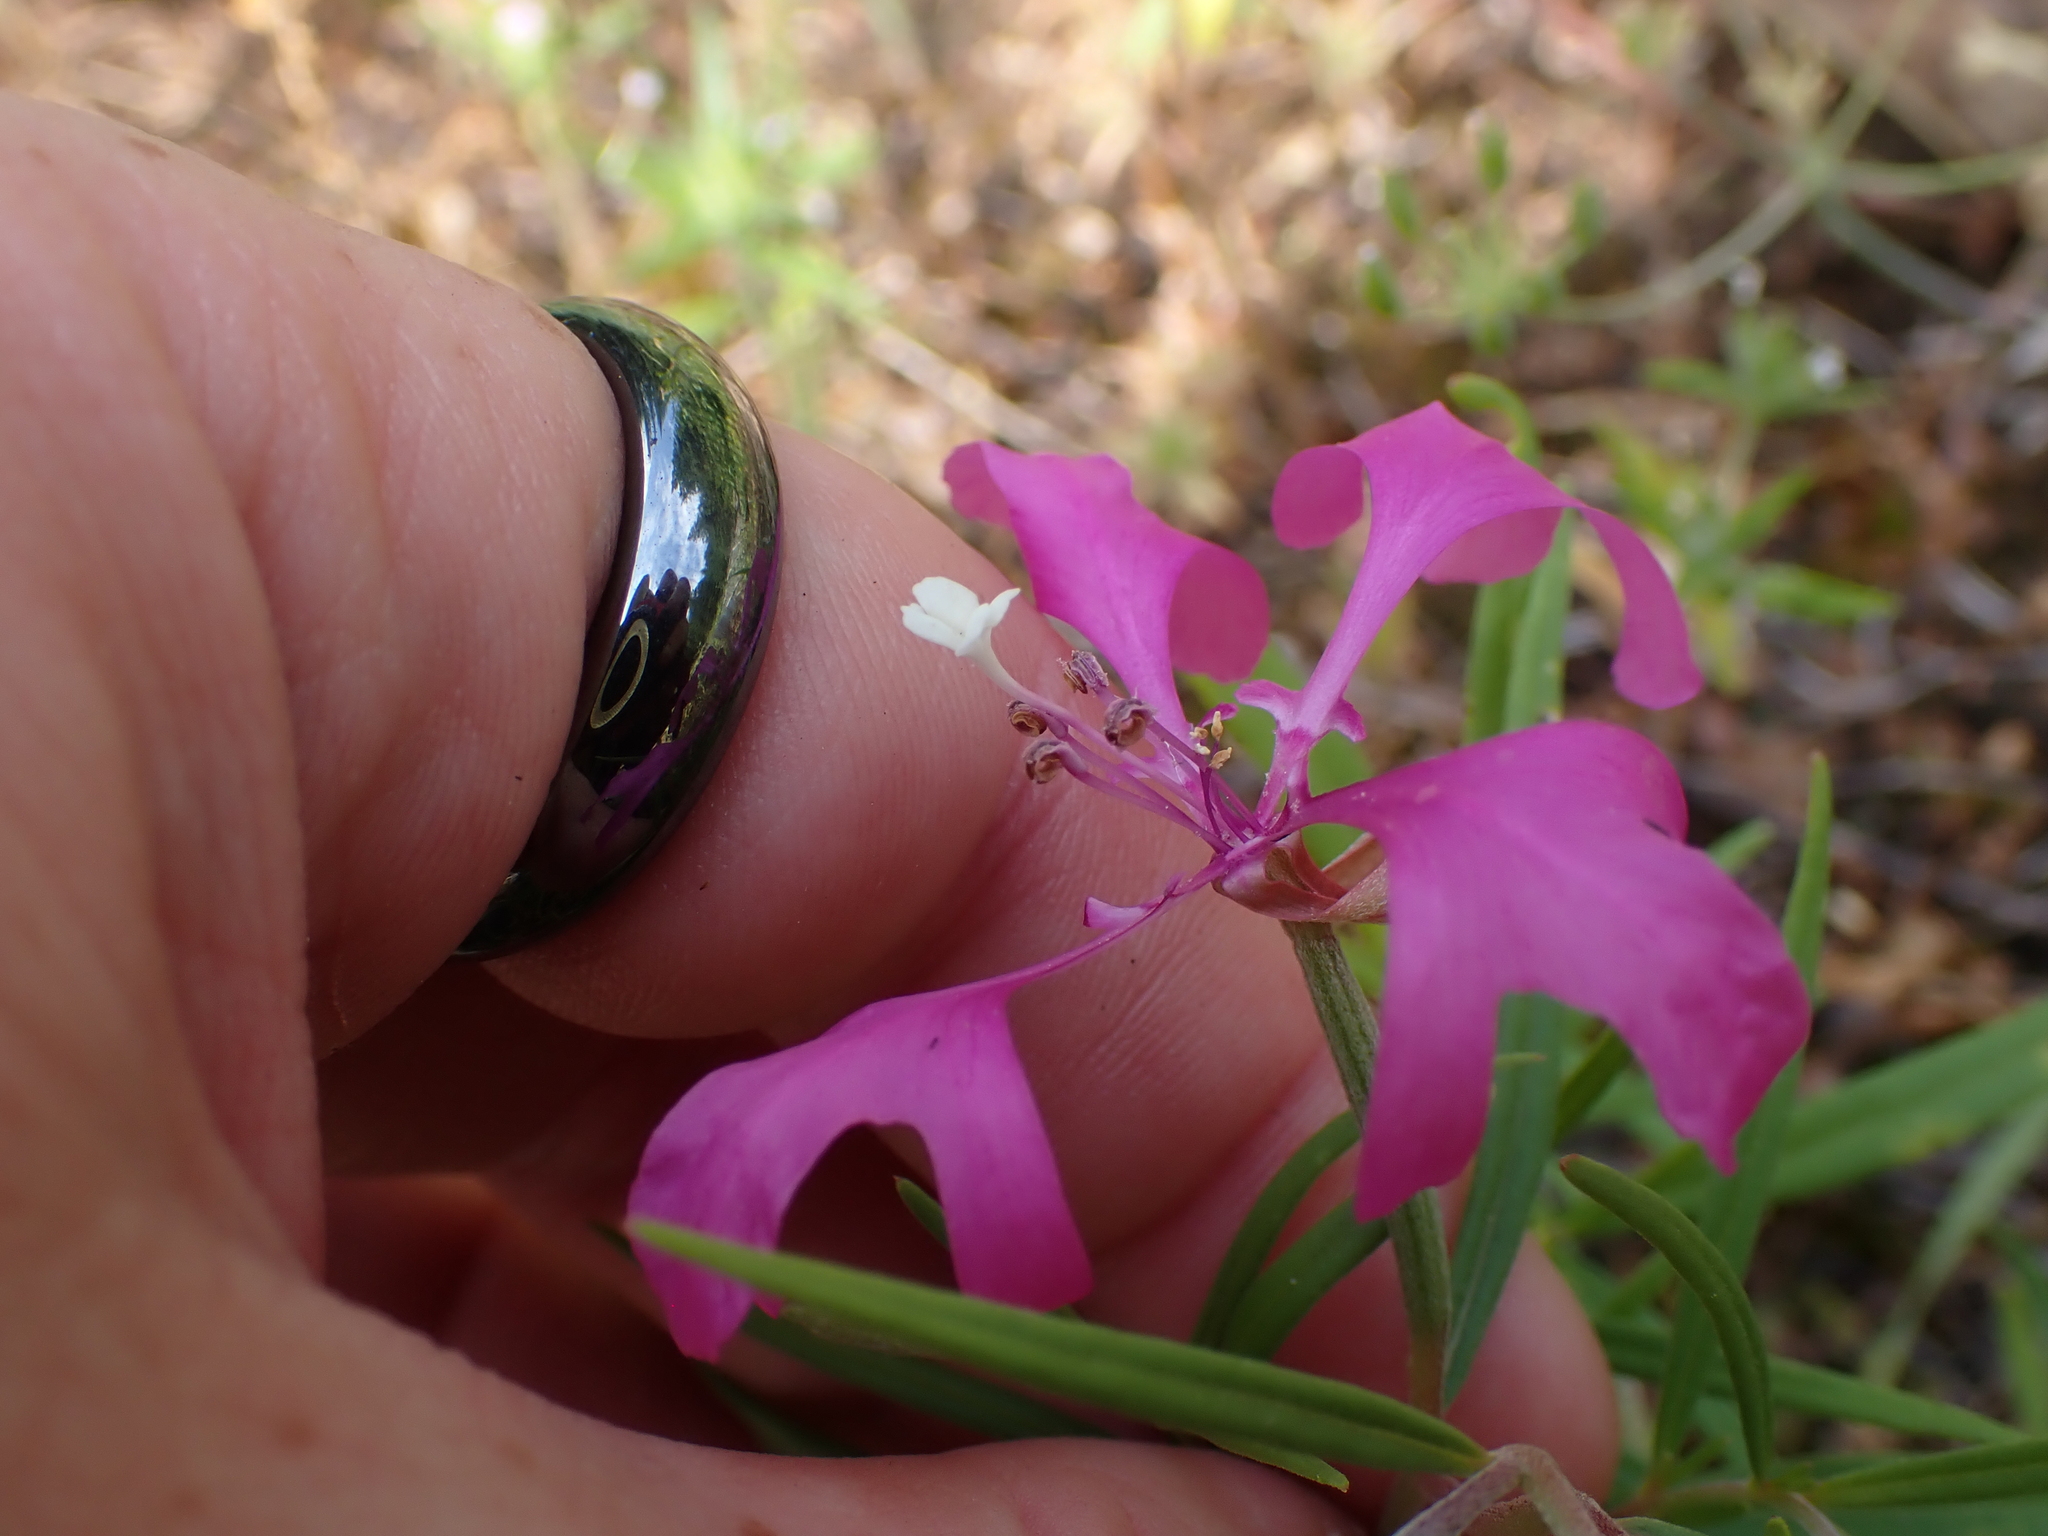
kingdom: Plantae
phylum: Tracheophyta
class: Magnoliopsida
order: Myrtales
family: Onagraceae
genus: Clarkia
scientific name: Clarkia pulchella
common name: Deer horn
